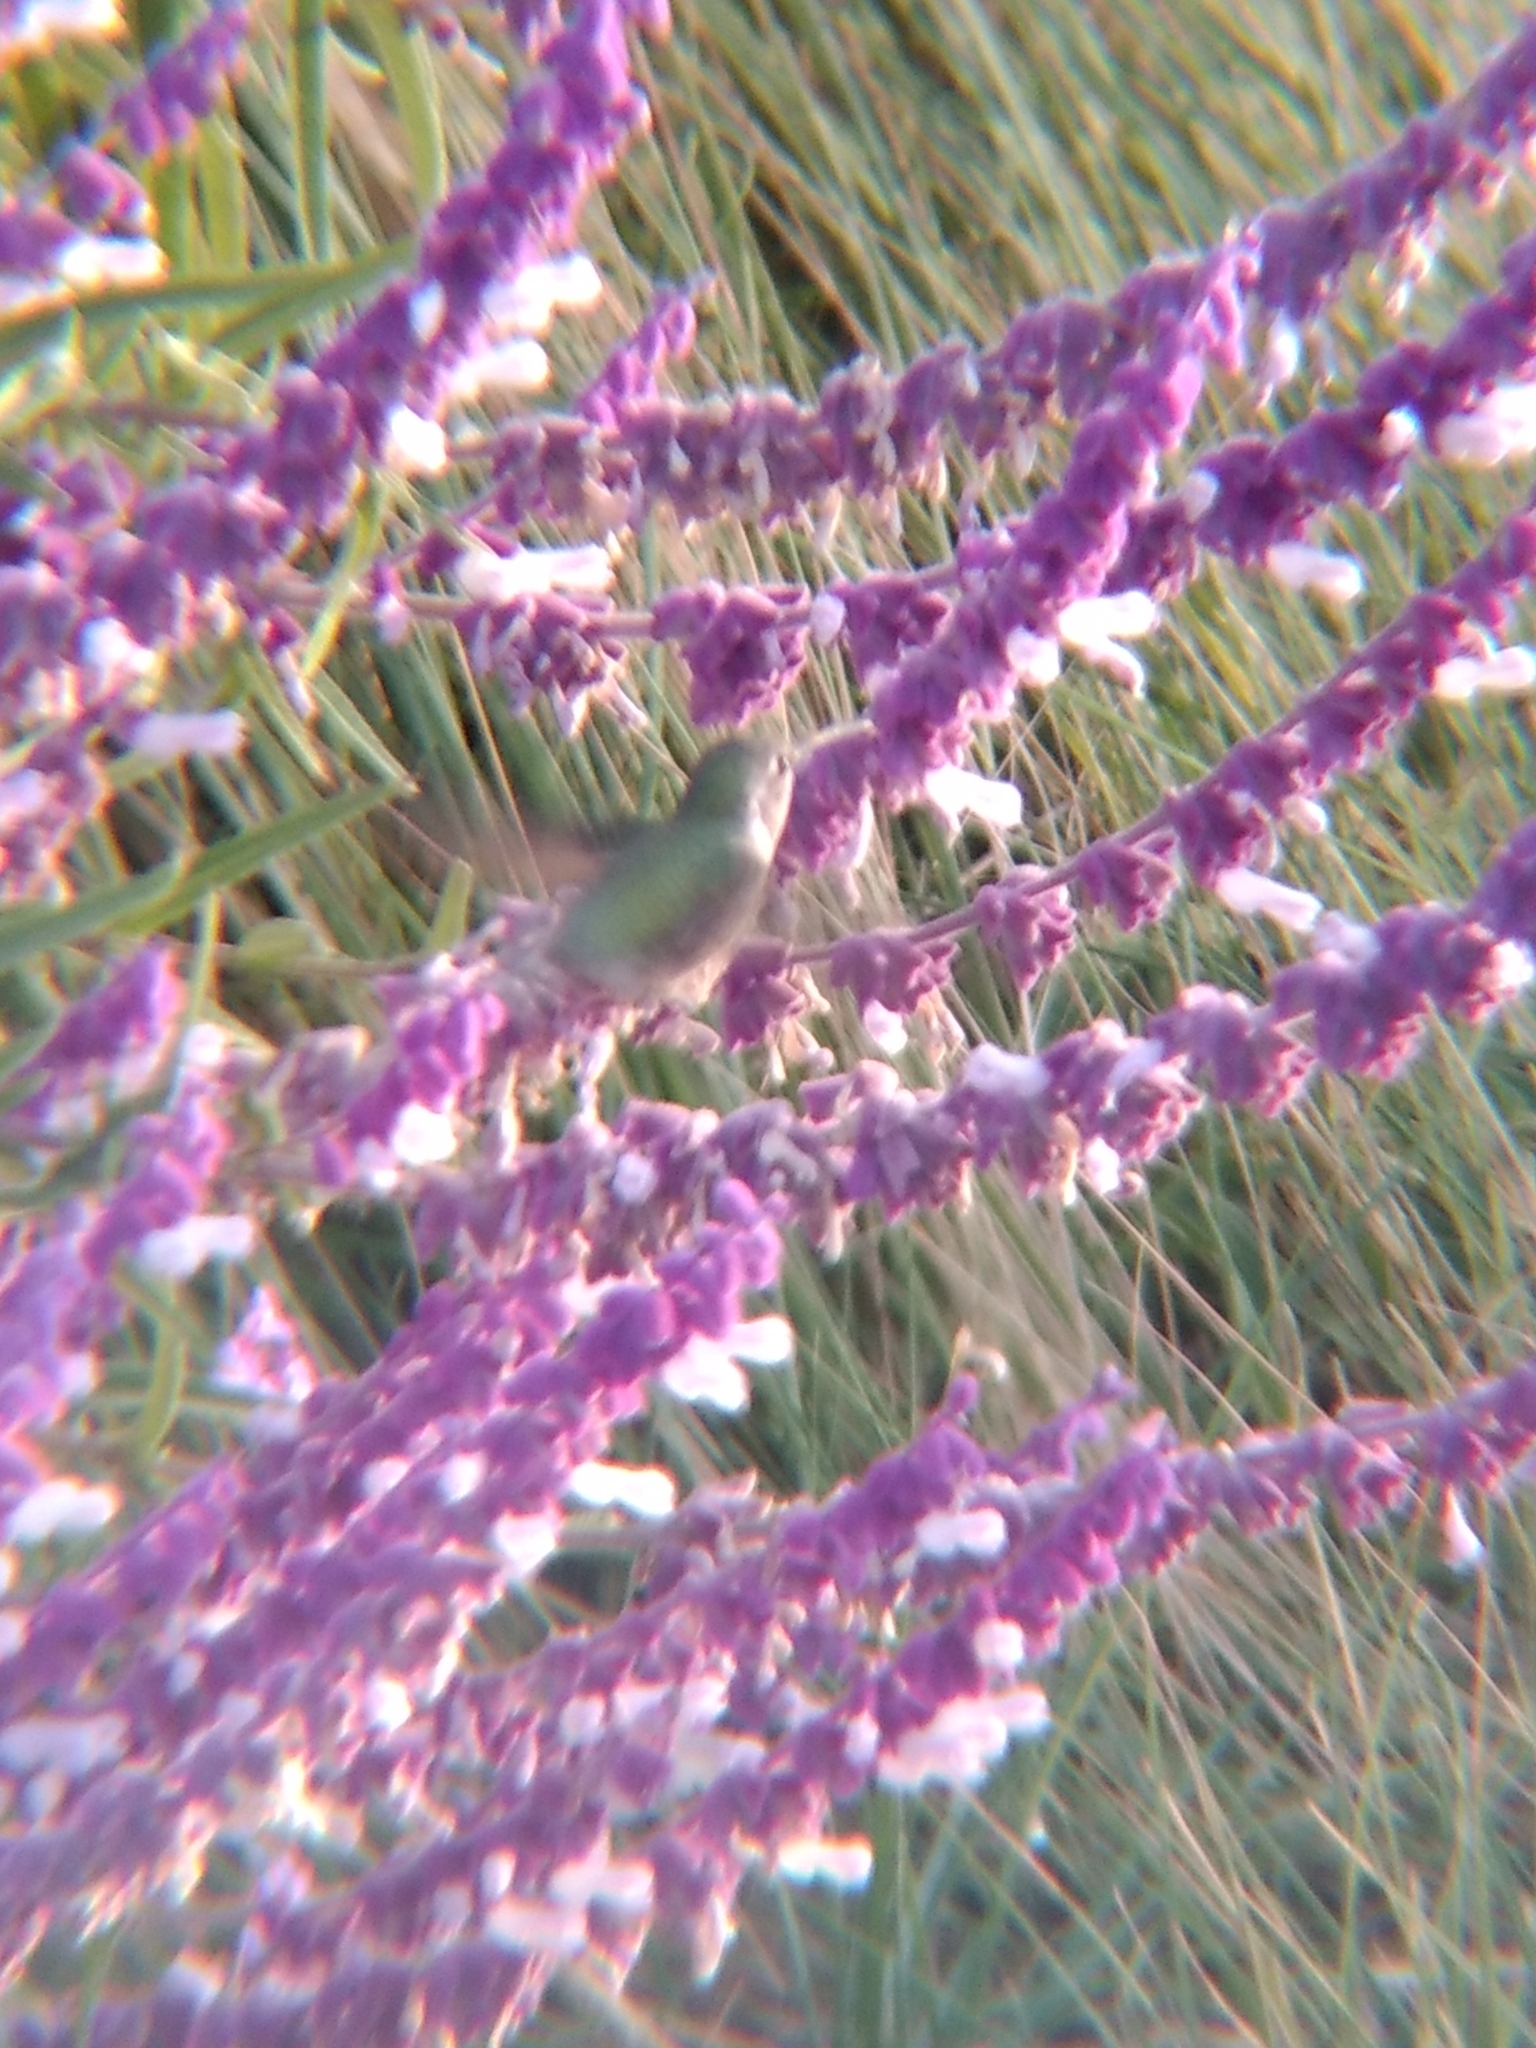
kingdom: Animalia
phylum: Chordata
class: Aves
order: Apodiformes
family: Trochilidae
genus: Calypte
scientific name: Calypte
